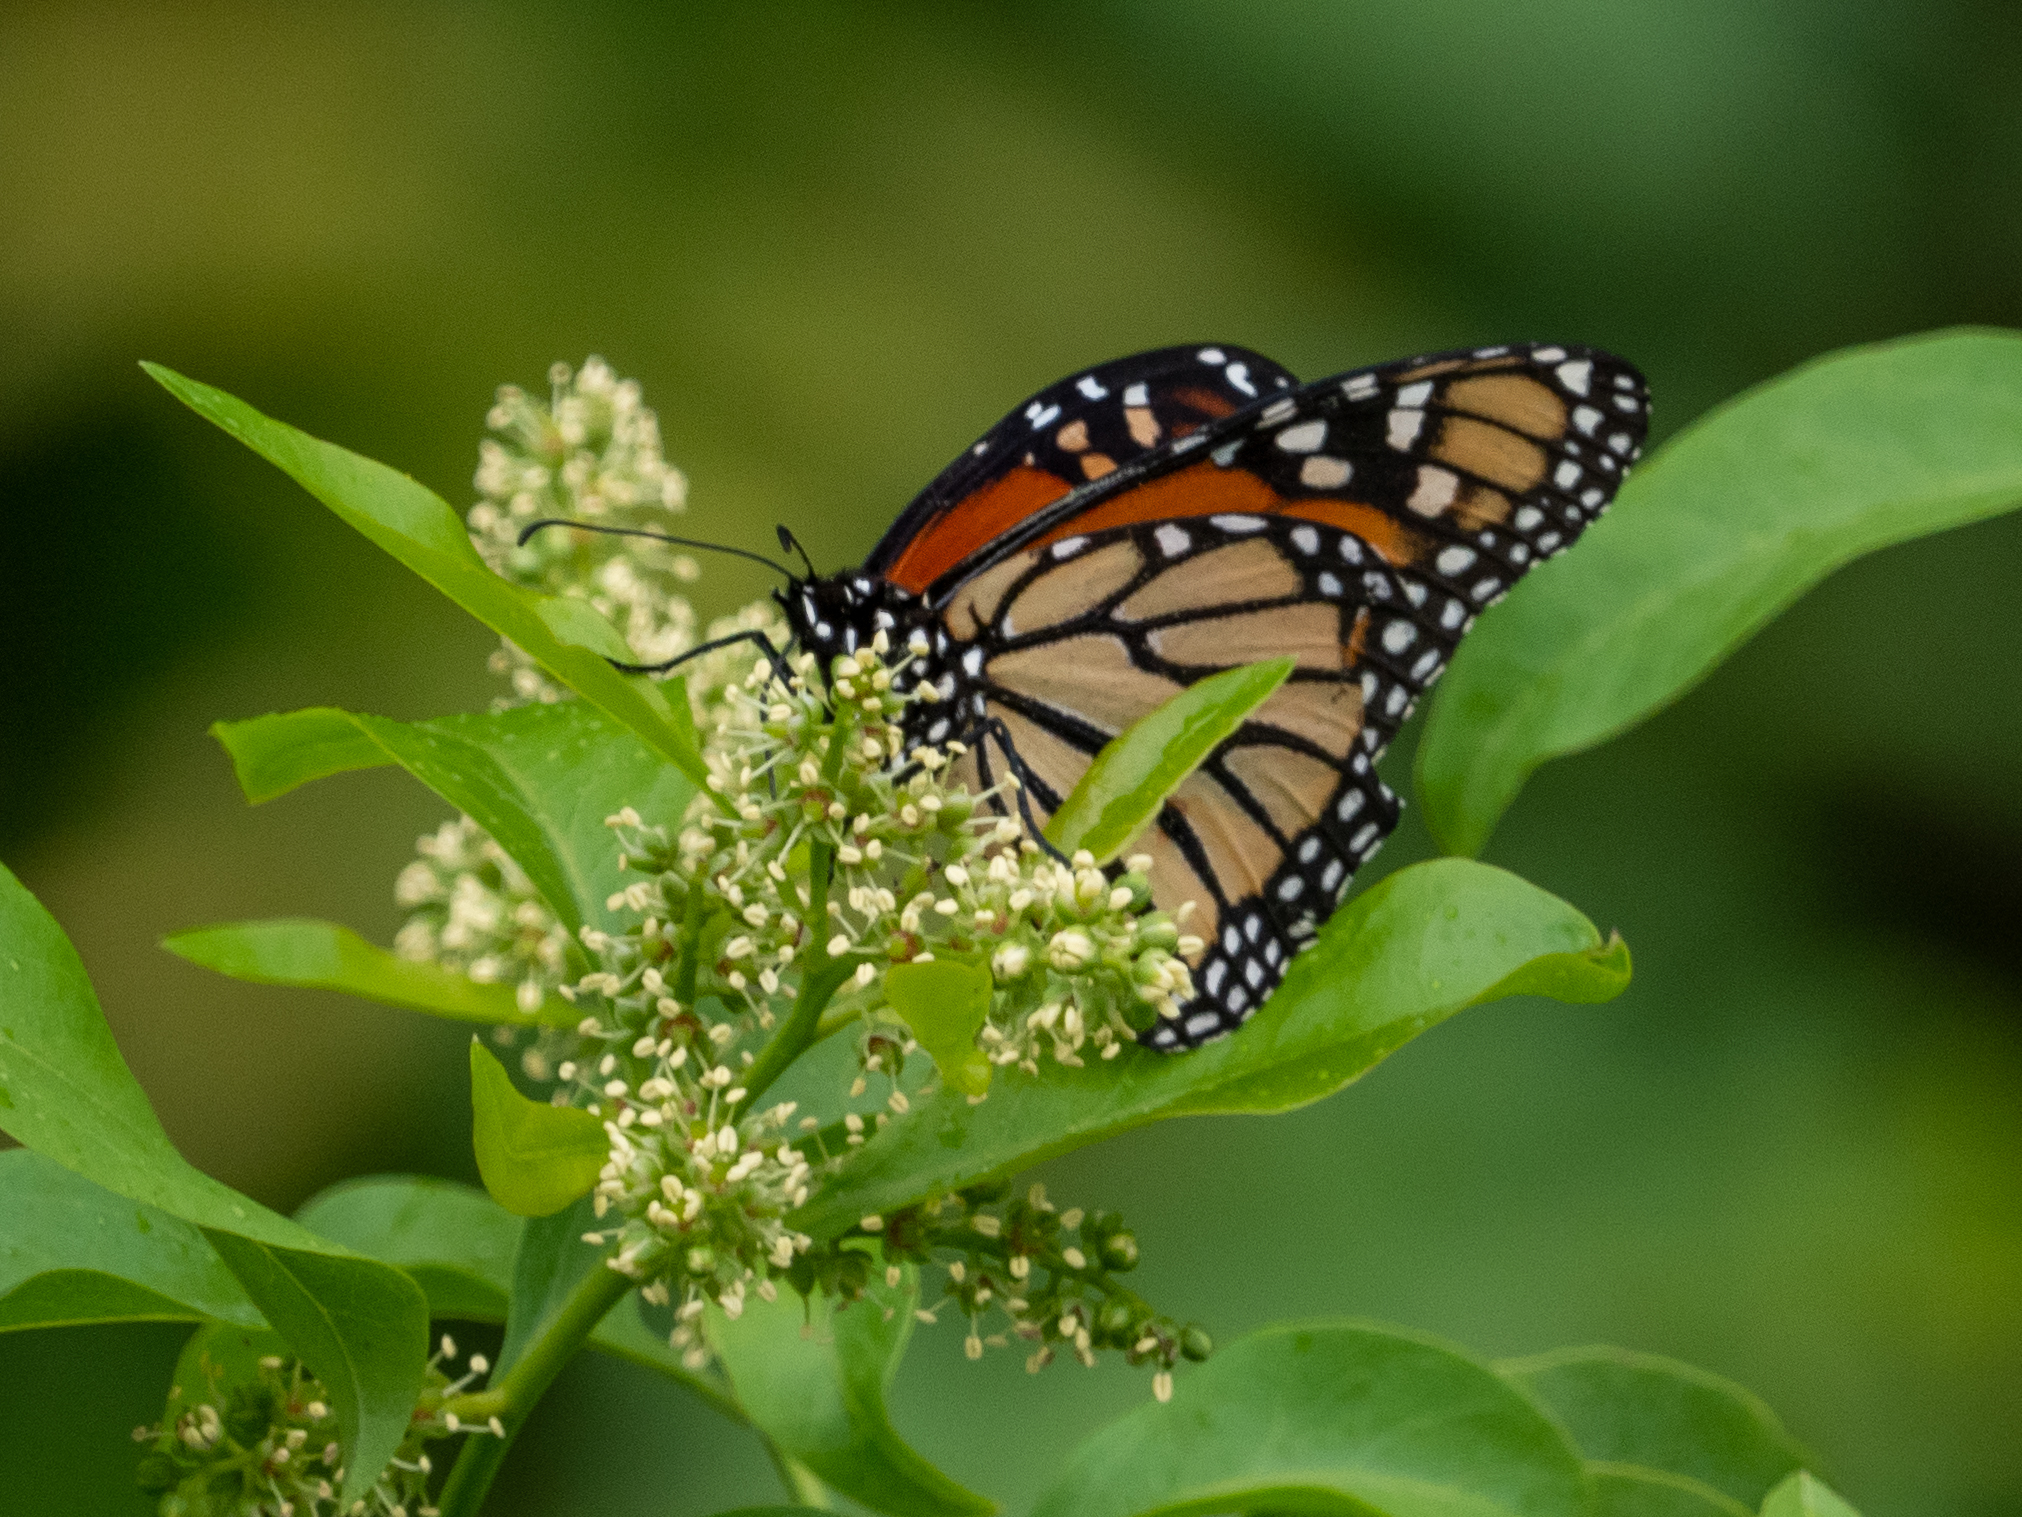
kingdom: Animalia
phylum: Arthropoda
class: Insecta
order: Lepidoptera
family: Nymphalidae
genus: Danaus
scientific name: Danaus plexippus
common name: Monarch
